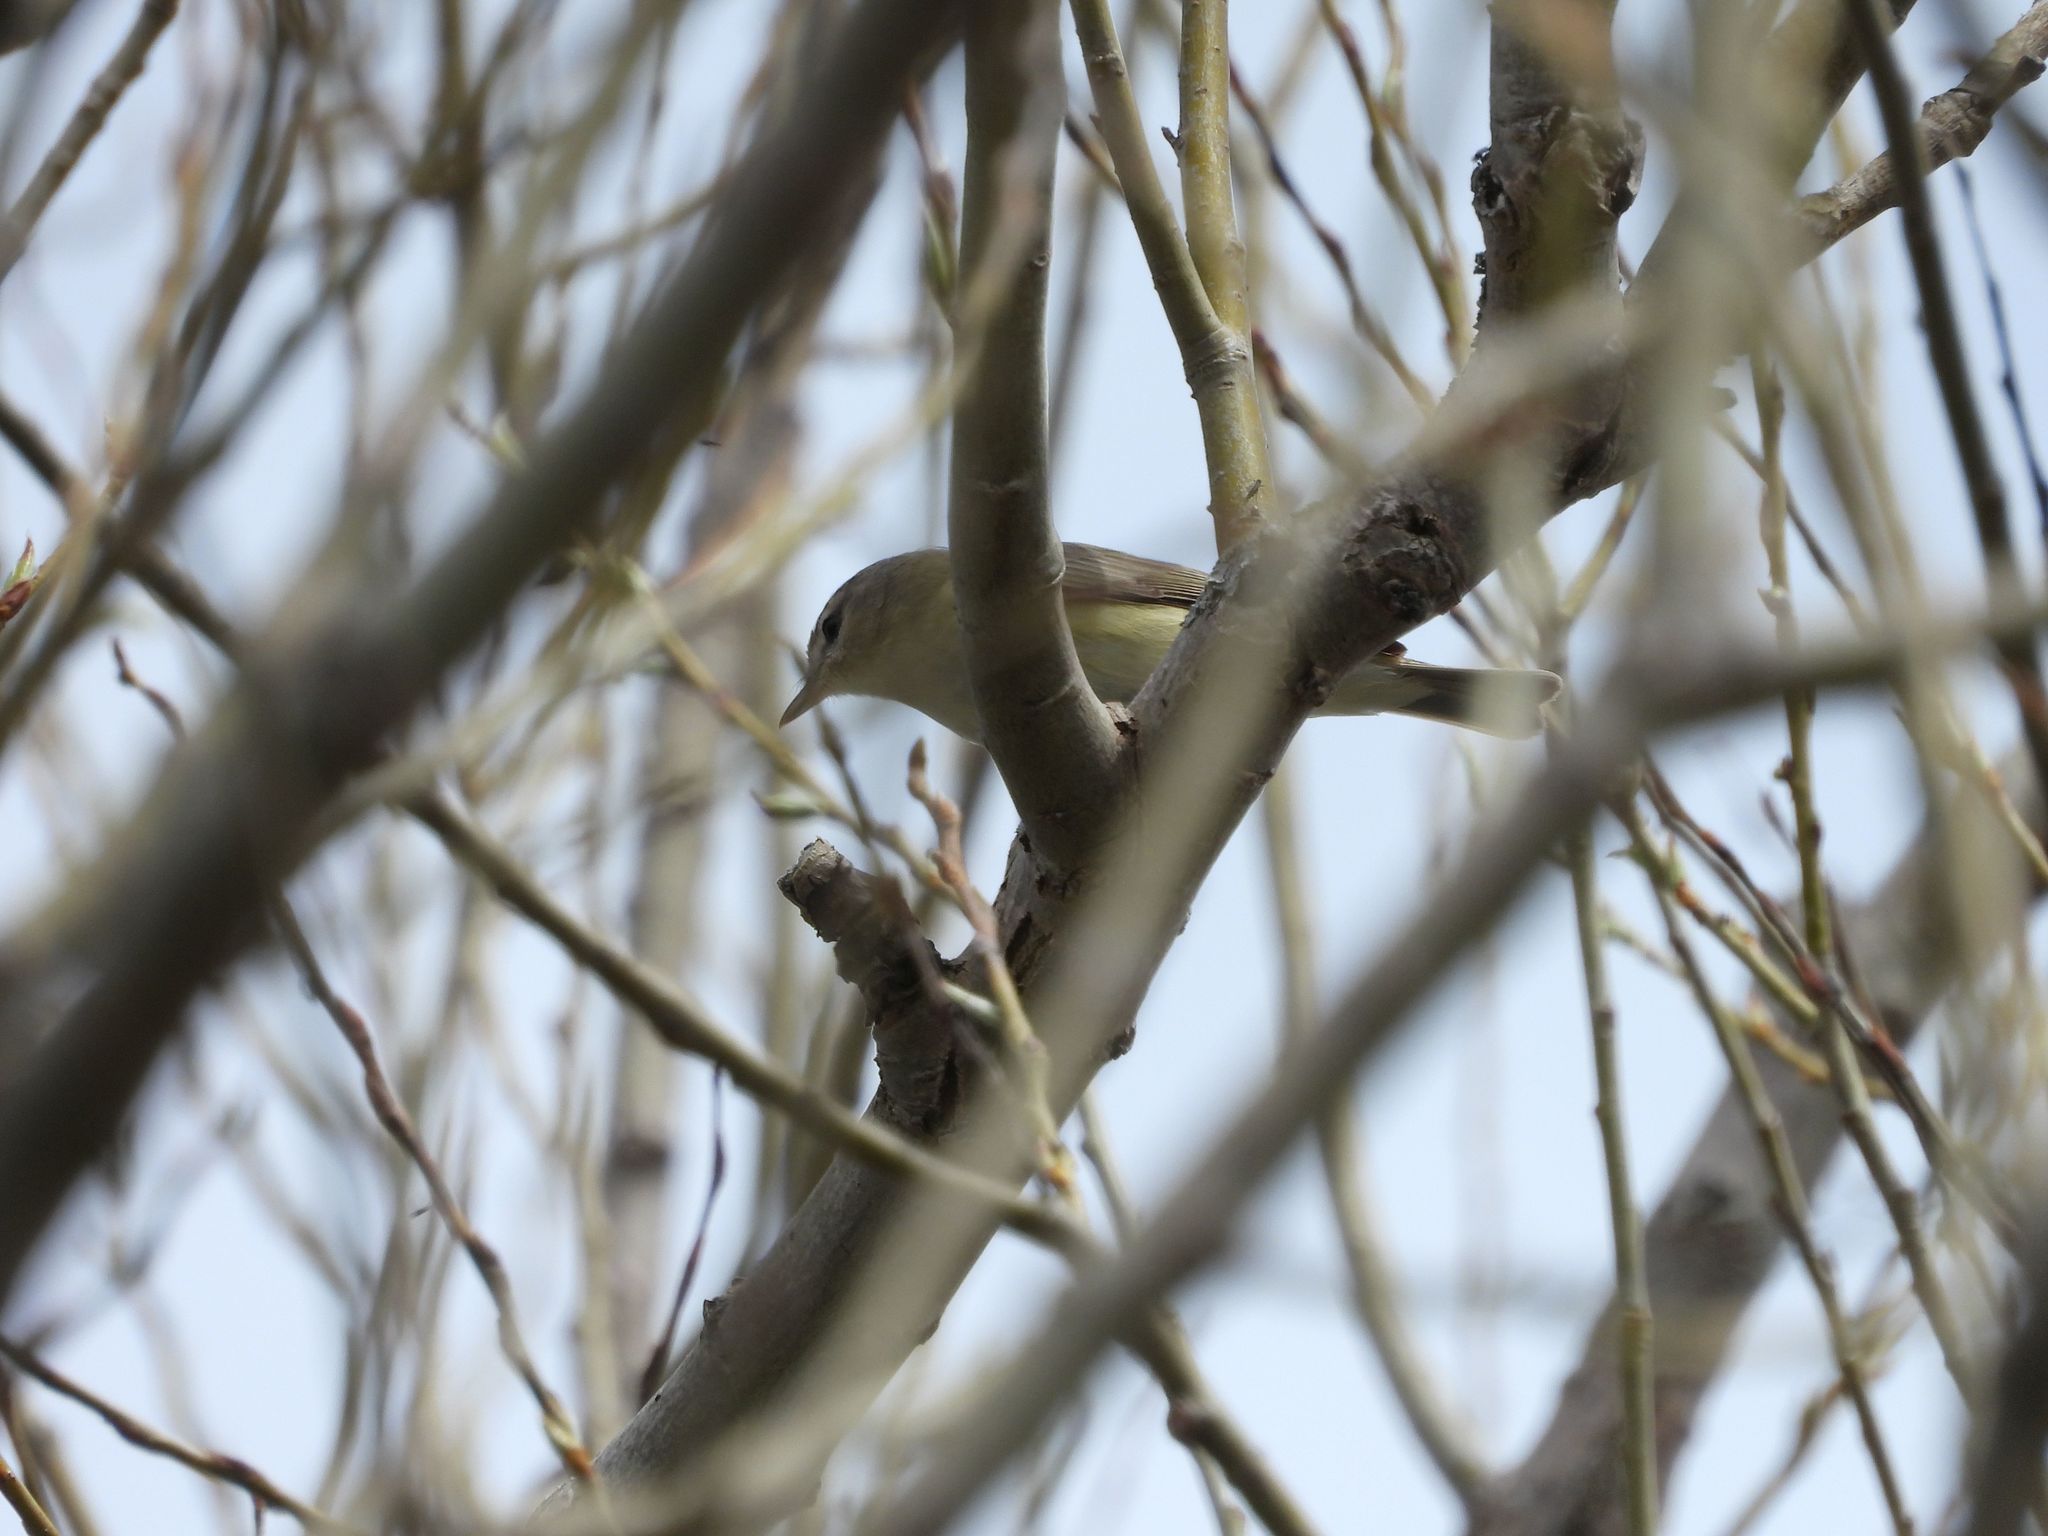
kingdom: Animalia
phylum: Chordata
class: Aves
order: Passeriformes
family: Vireonidae
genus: Vireo
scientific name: Vireo gilvus
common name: Warbling vireo
